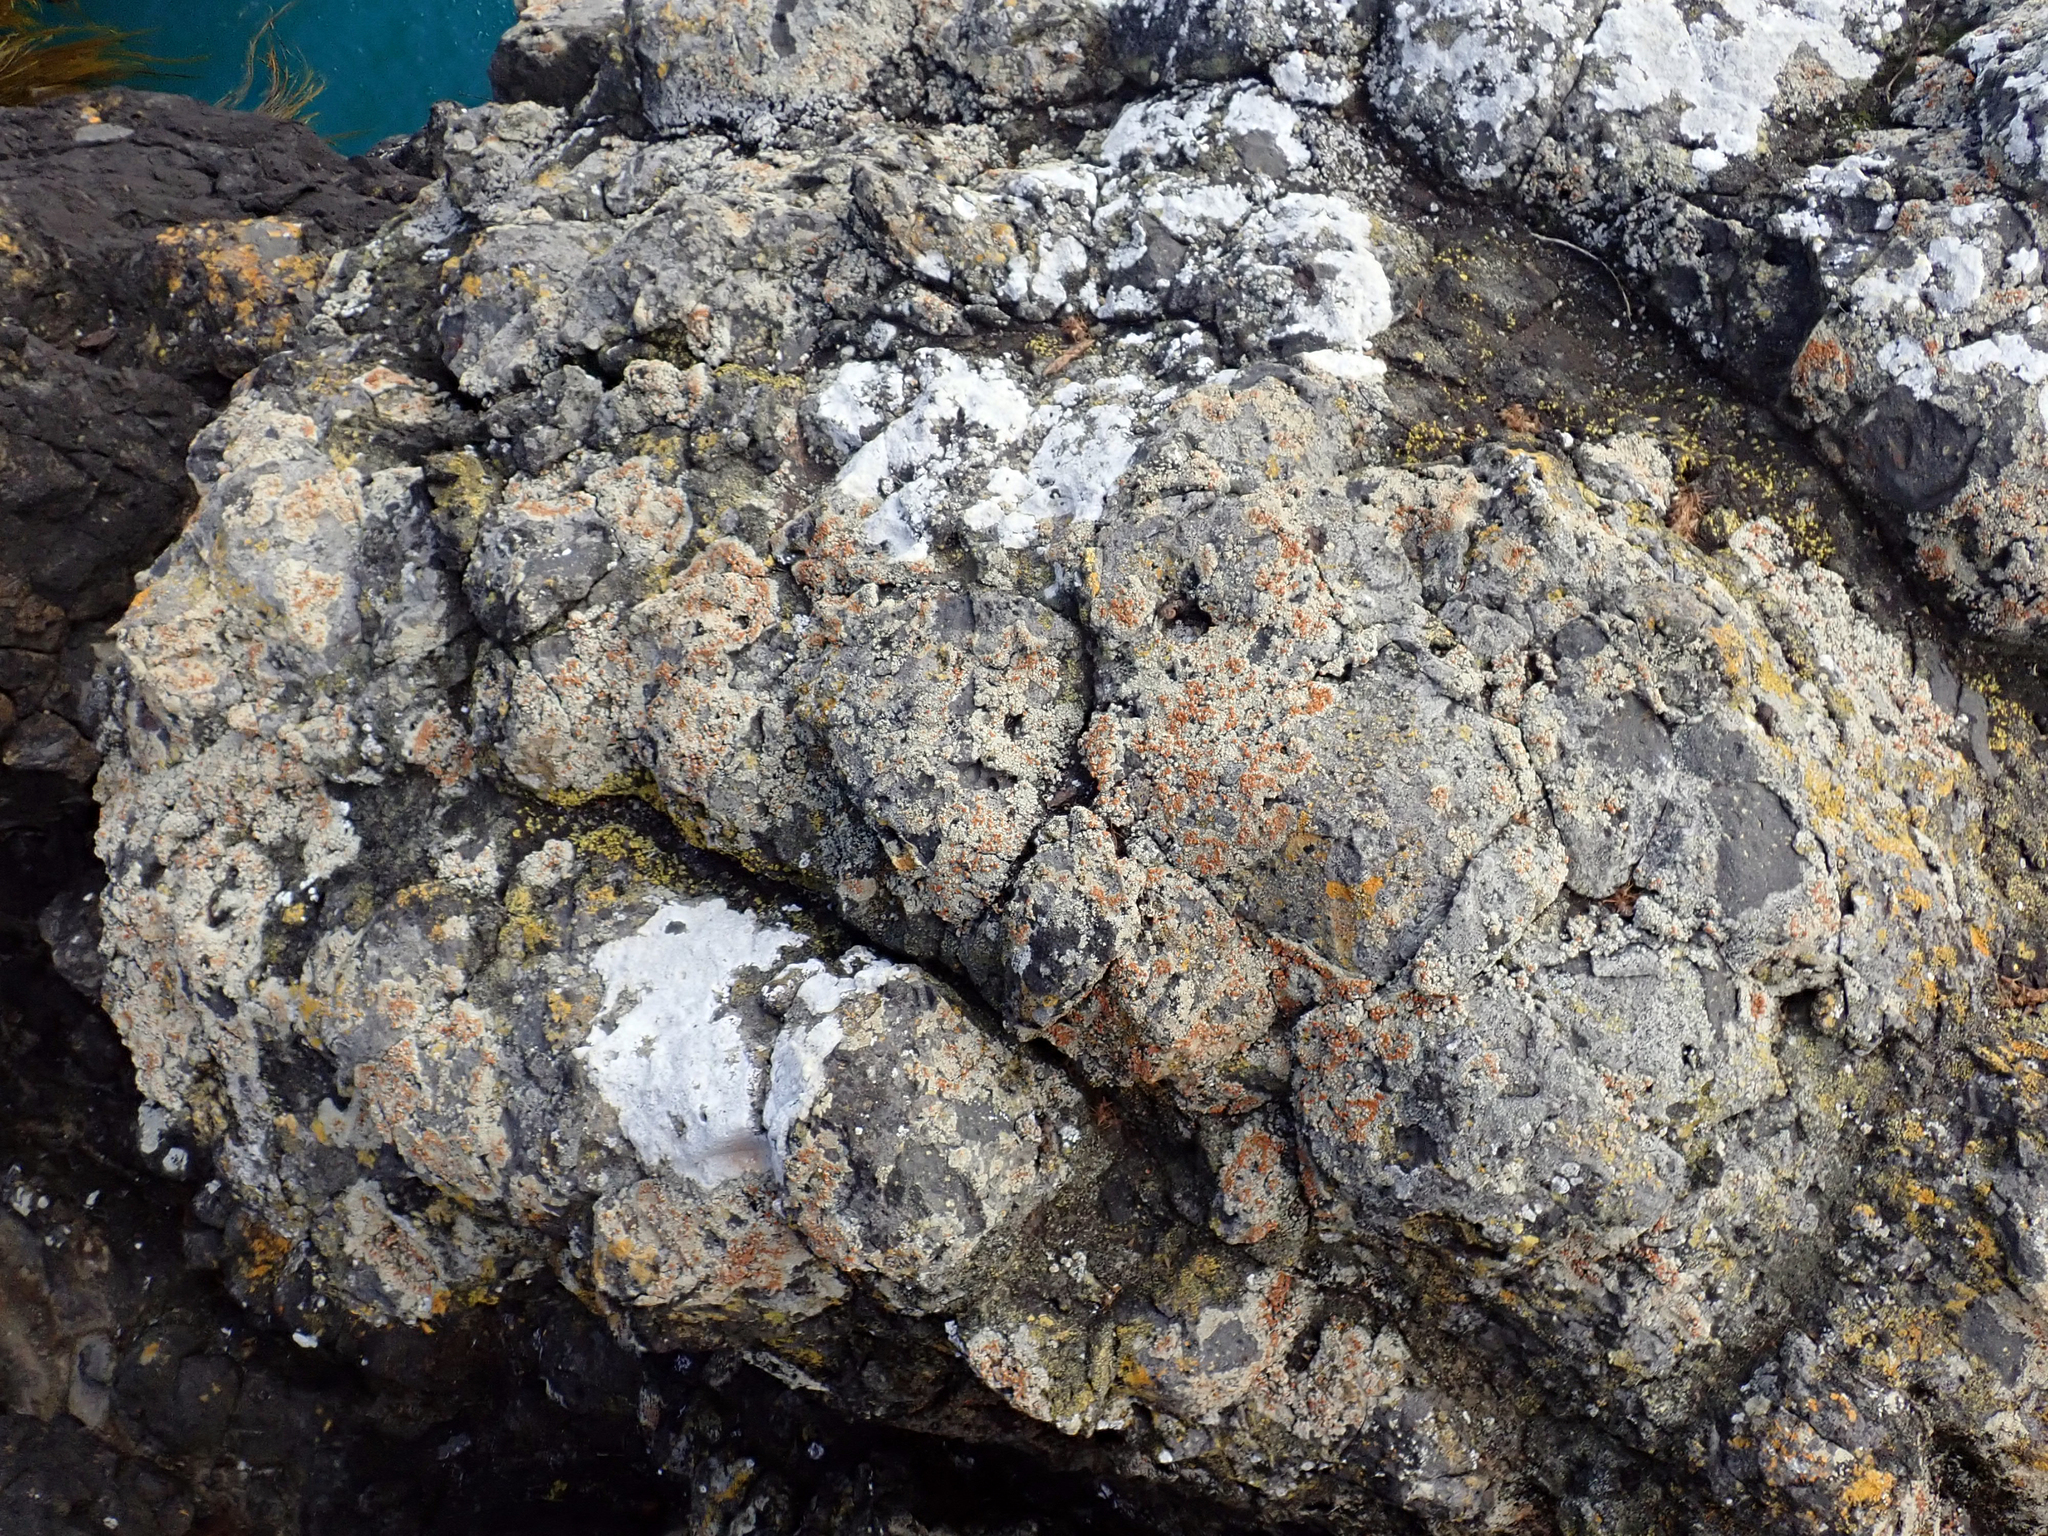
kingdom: Fungi
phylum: Ascomycota
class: Lecanoromycetes
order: Teloschistales
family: Teloschistaceae
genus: Caloplaca
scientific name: Caloplaca maculata
